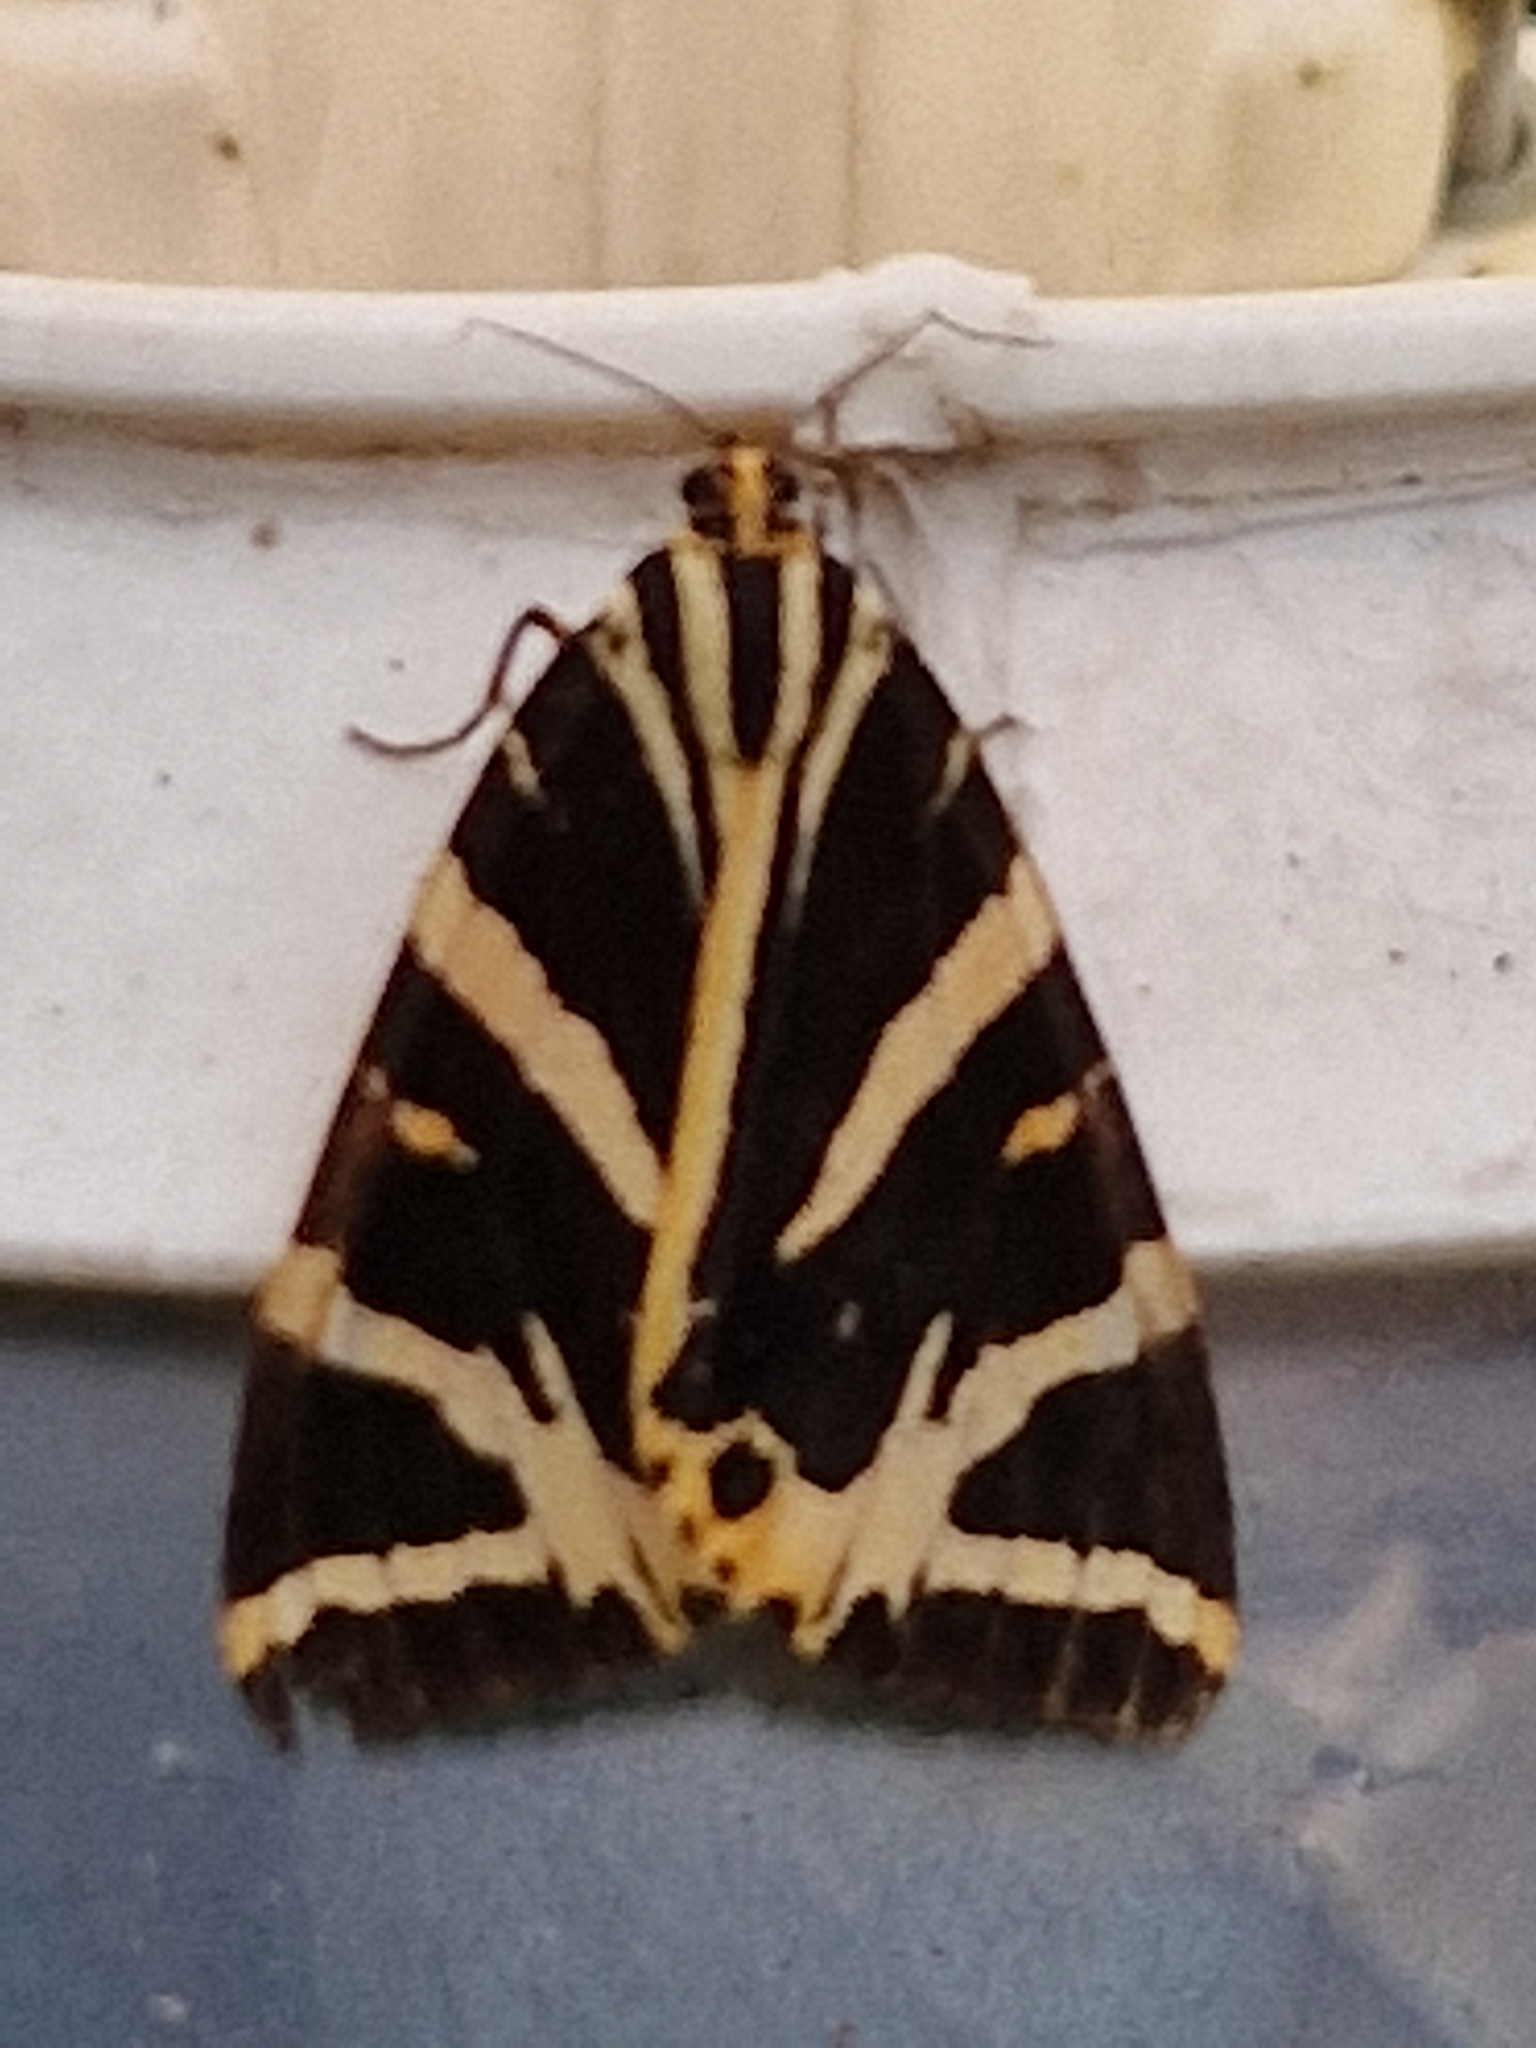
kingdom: Animalia
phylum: Arthropoda
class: Insecta
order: Lepidoptera
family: Erebidae
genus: Euplagia
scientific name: Euplagia quadripunctaria
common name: Jersey tiger
